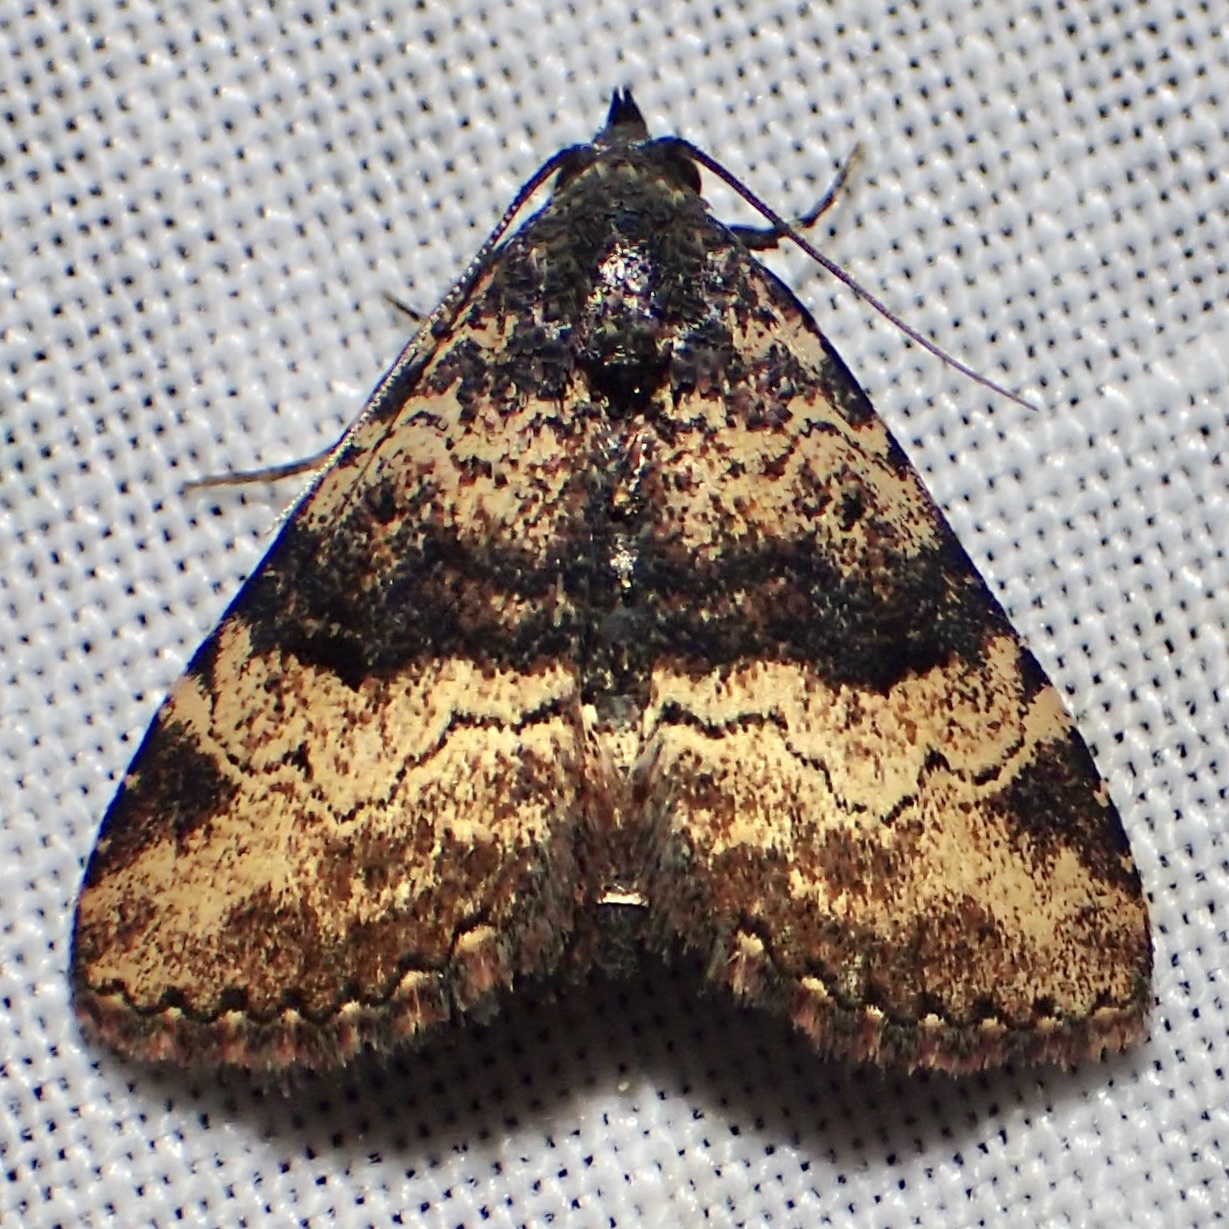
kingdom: Animalia
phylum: Arthropoda
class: Insecta
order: Lepidoptera
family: Erebidae
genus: Metalectra
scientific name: Metalectra edilis
